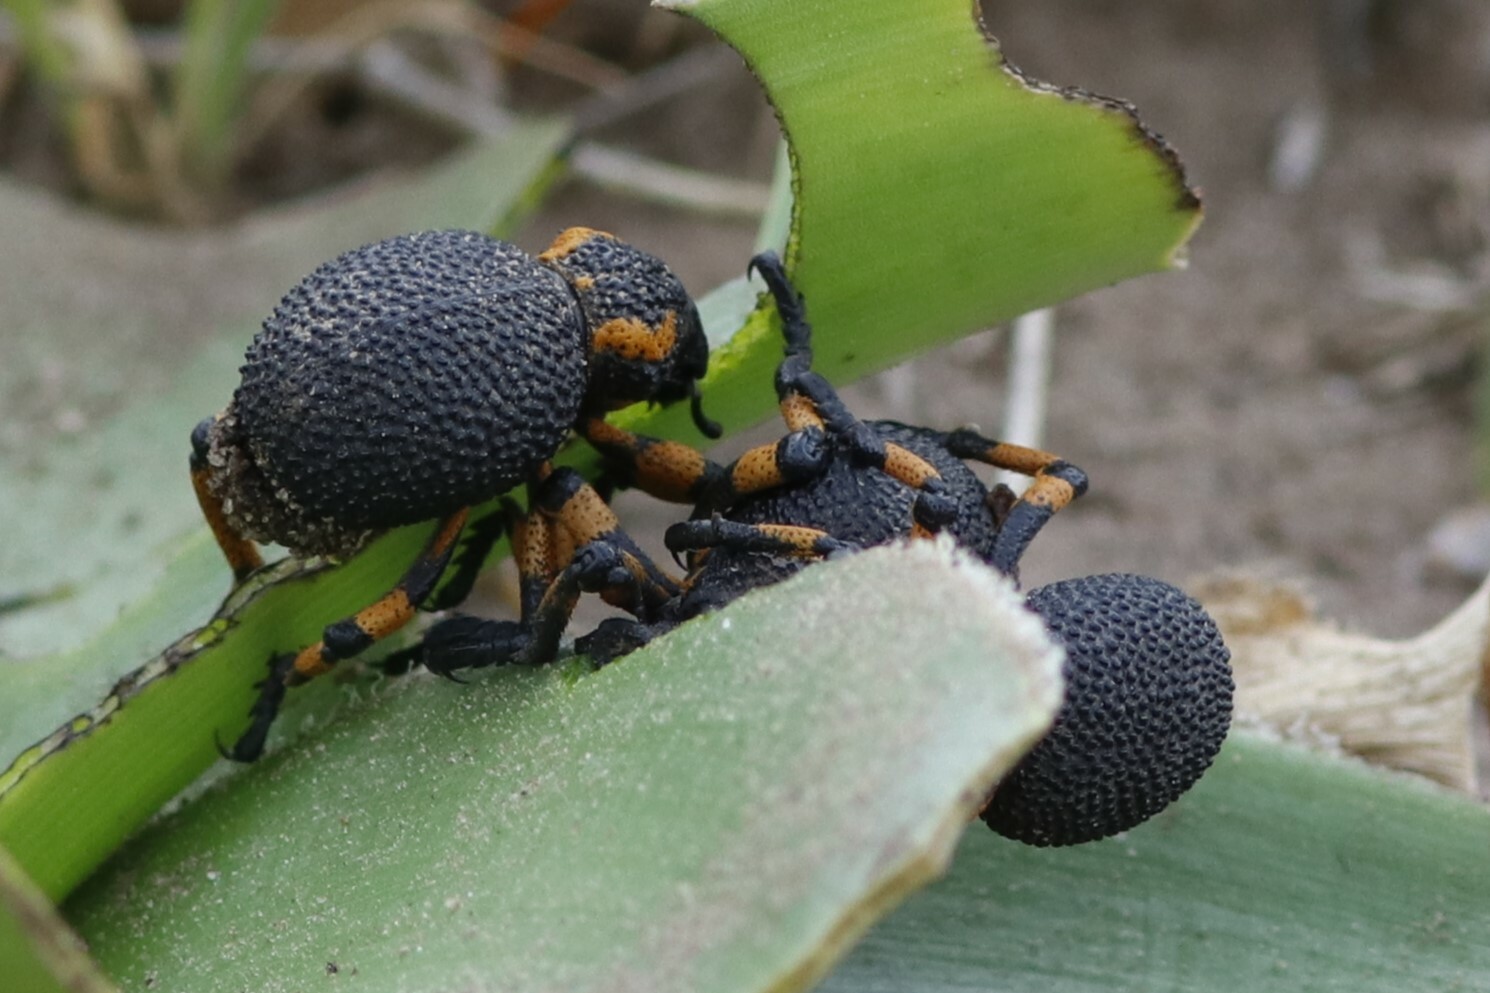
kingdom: Animalia
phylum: Arthropoda
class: Insecta
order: Coleoptera
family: Brachyceridae
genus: Brachycerus
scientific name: Brachycerus congestus
